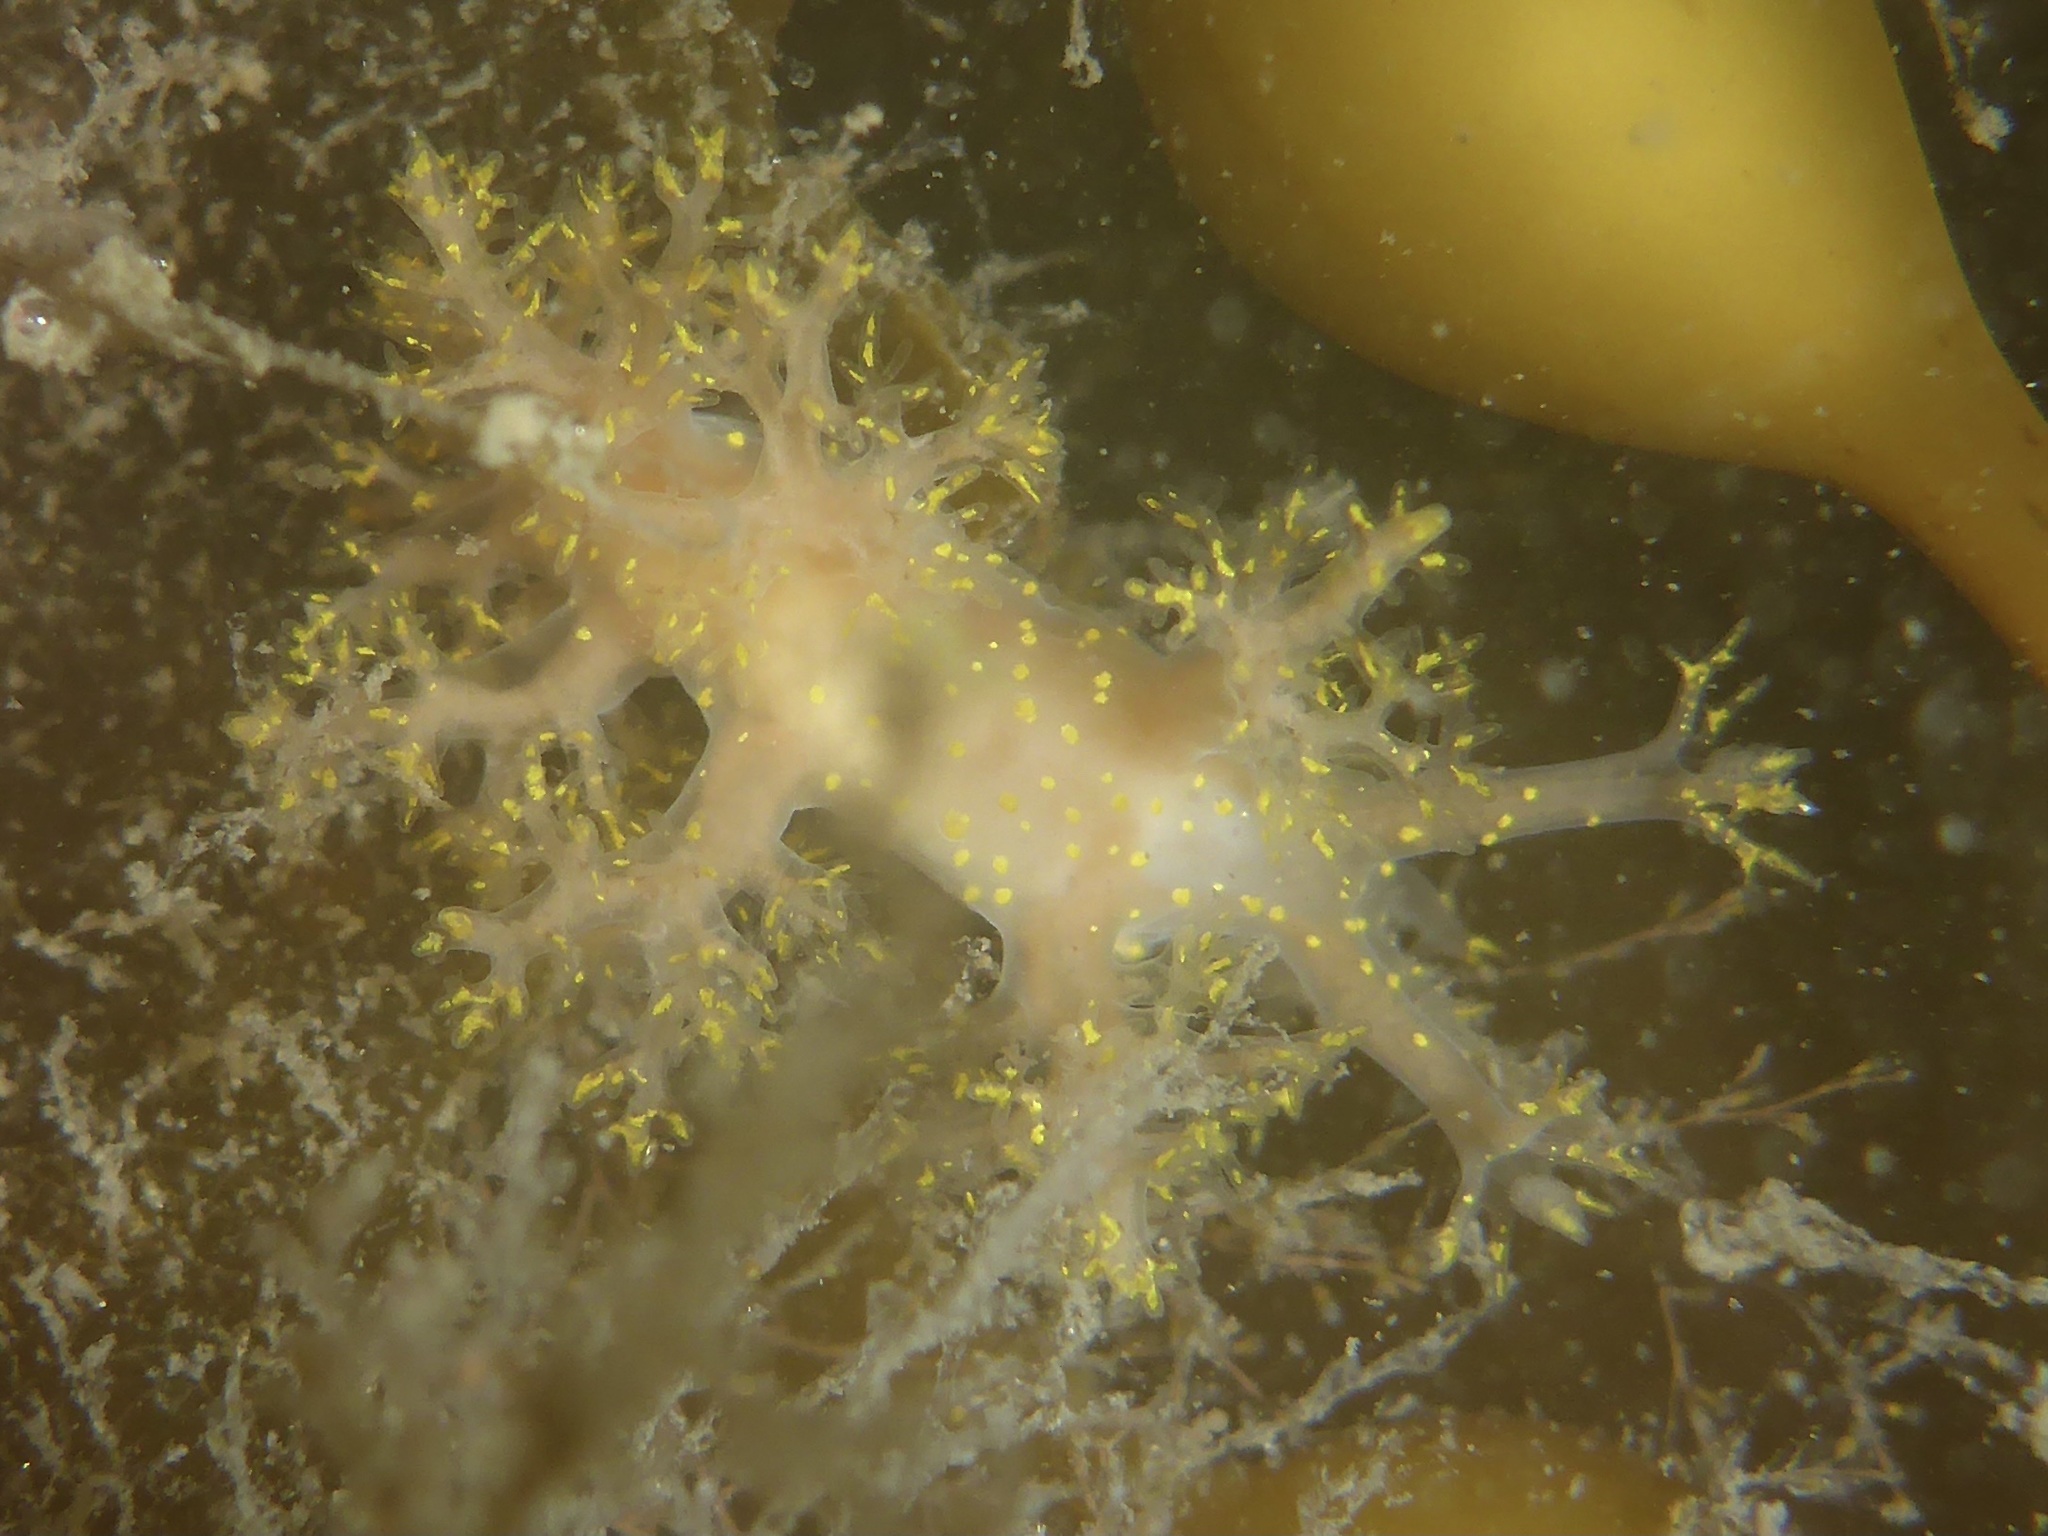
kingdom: Animalia
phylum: Mollusca
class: Gastropoda
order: Nudibranchia
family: Dendronotidae
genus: Dendronotus
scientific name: Dendronotus venustus
